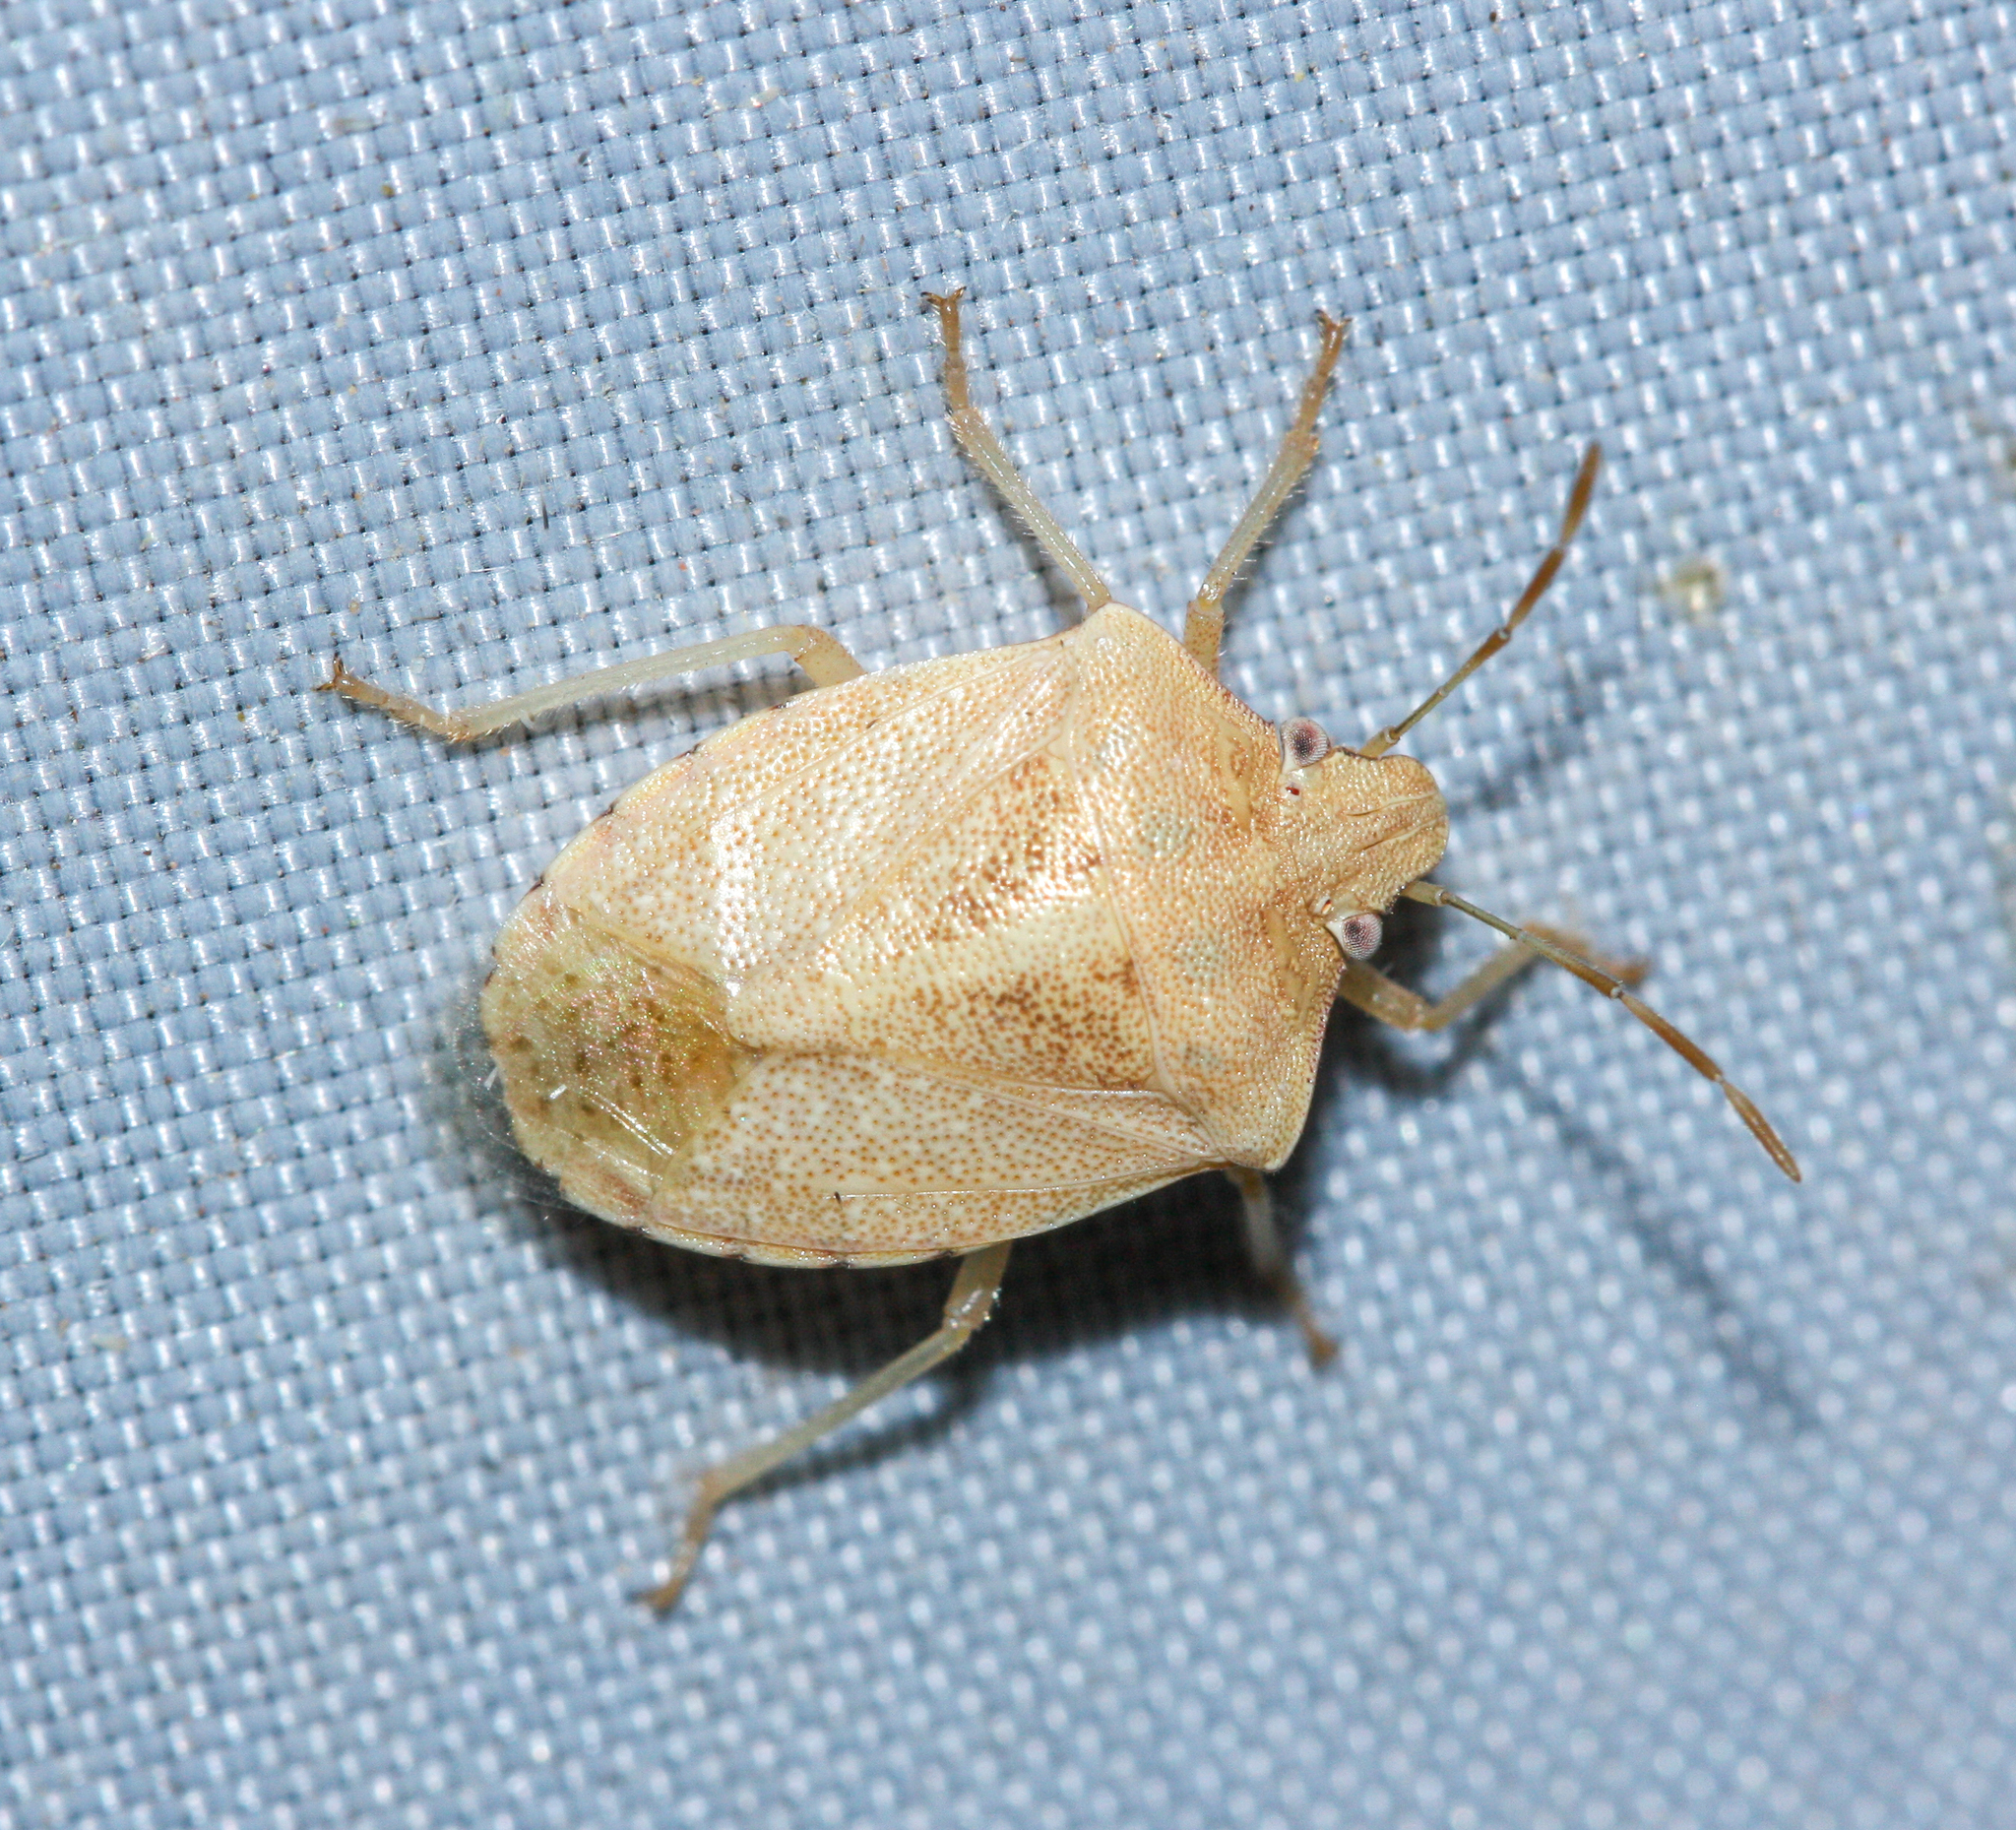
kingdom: Animalia
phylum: Arthropoda
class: Insecta
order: Hemiptera
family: Pentatomidae
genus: Thyanta
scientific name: Thyanta accerra
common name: Stink bug
